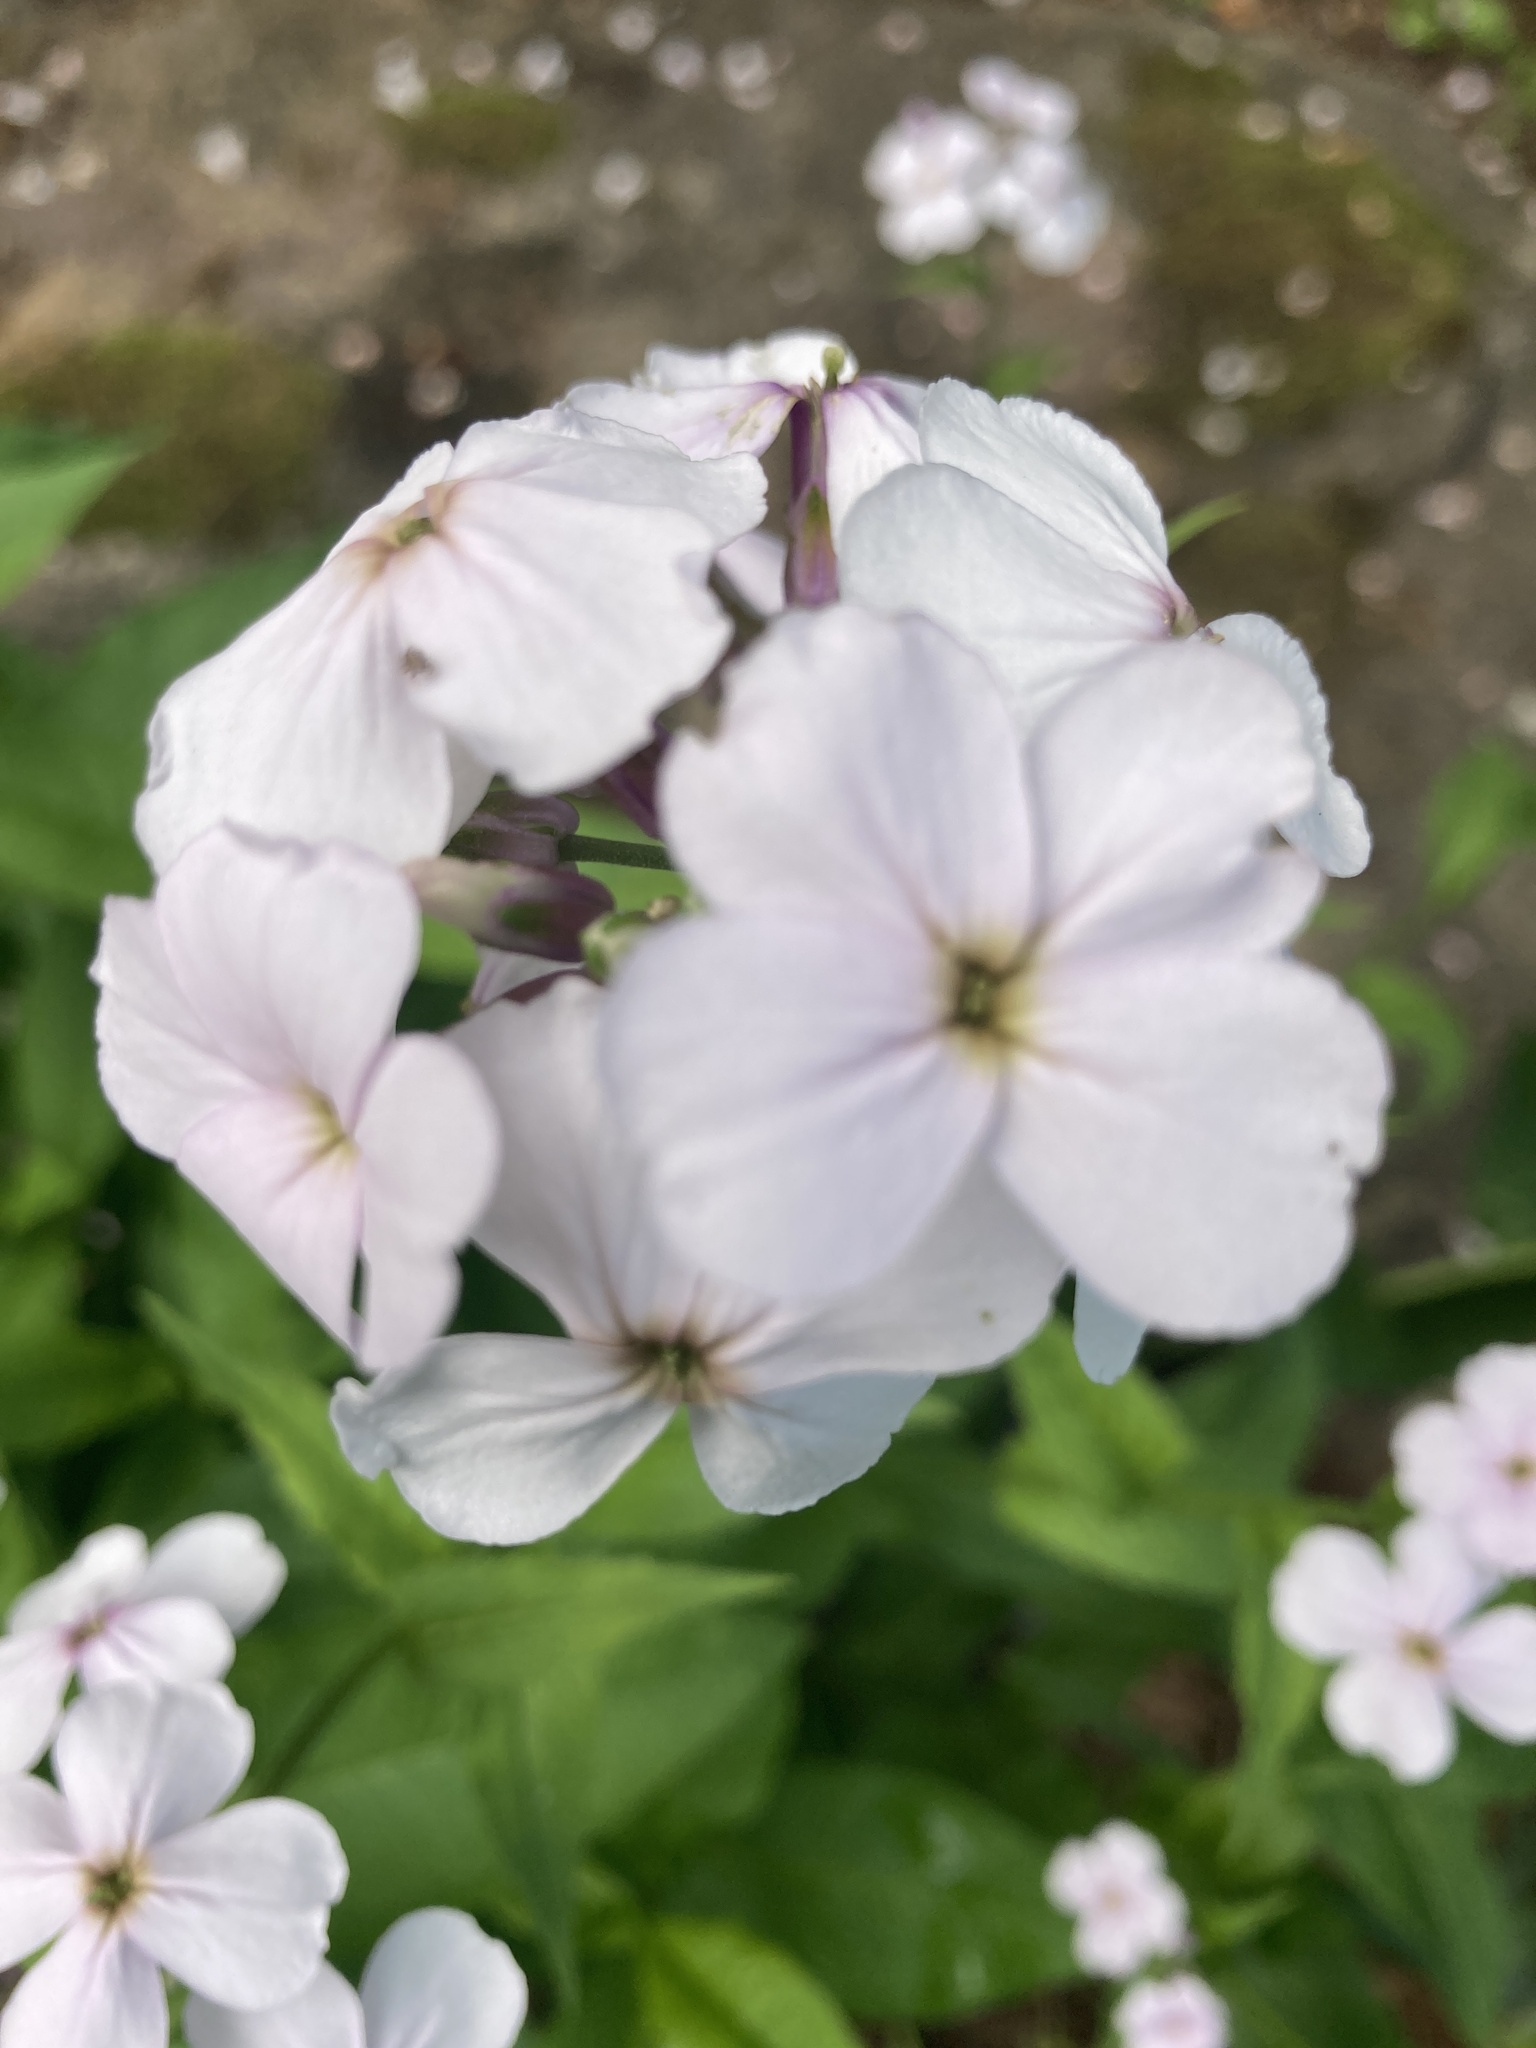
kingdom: Plantae
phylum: Tracheophyta
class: Magnoliopsida
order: Brassicales
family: Brassicaceae
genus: Hesperis
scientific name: Hesperis matronalis
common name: Dame's-violet
